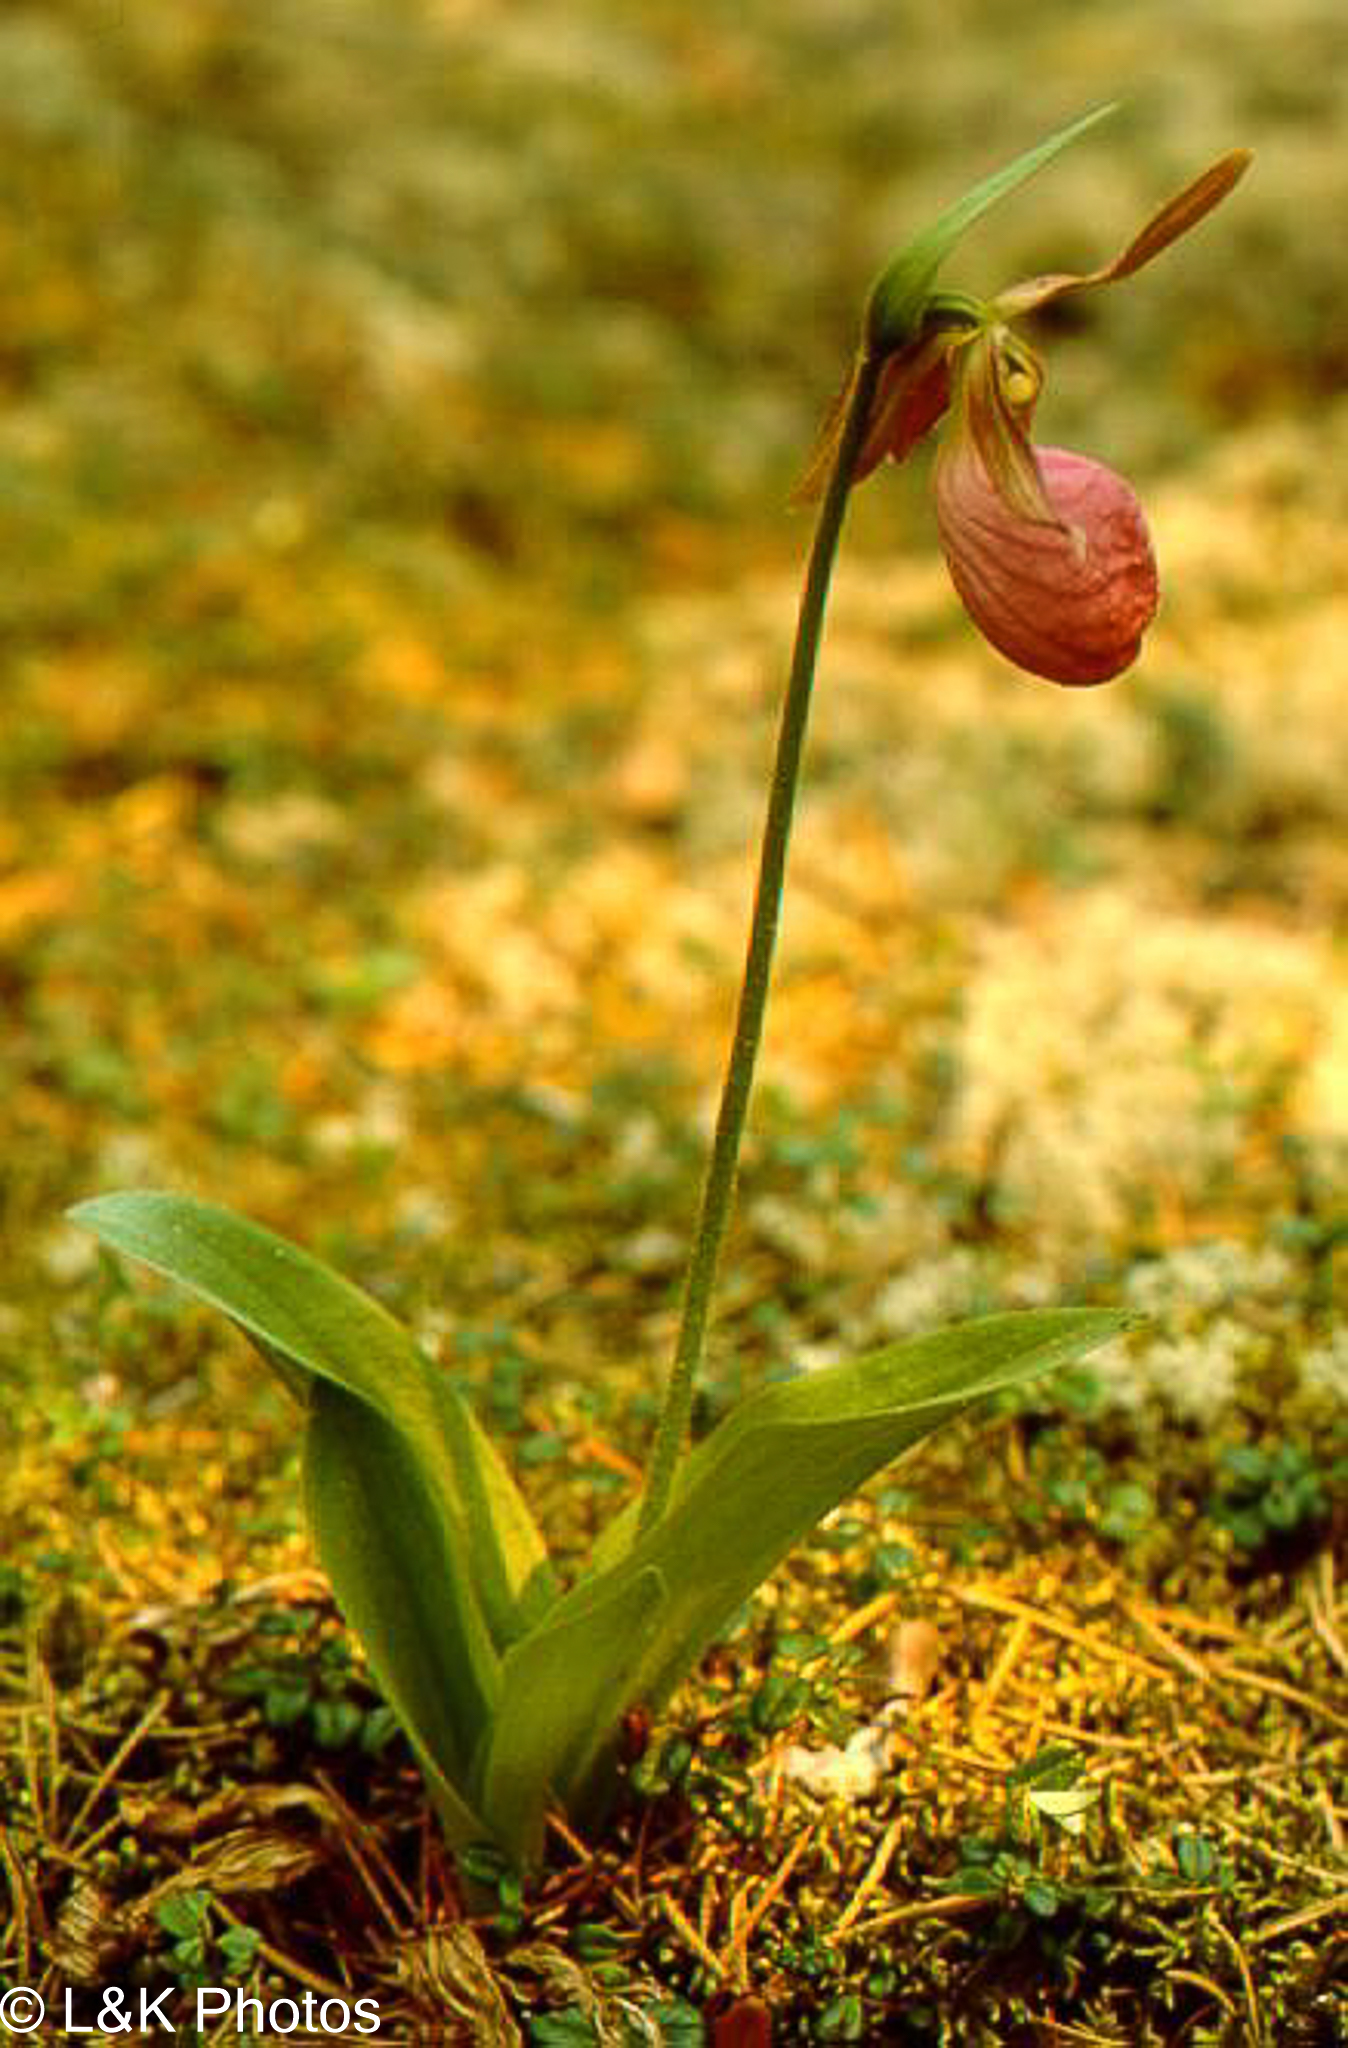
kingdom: Plantae
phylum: Tracheophyta
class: Liliopsida
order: Asparagales
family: Orchidaceae
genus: Cypripedium
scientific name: Cypripedium acaule
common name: Pink lady's-slipper
